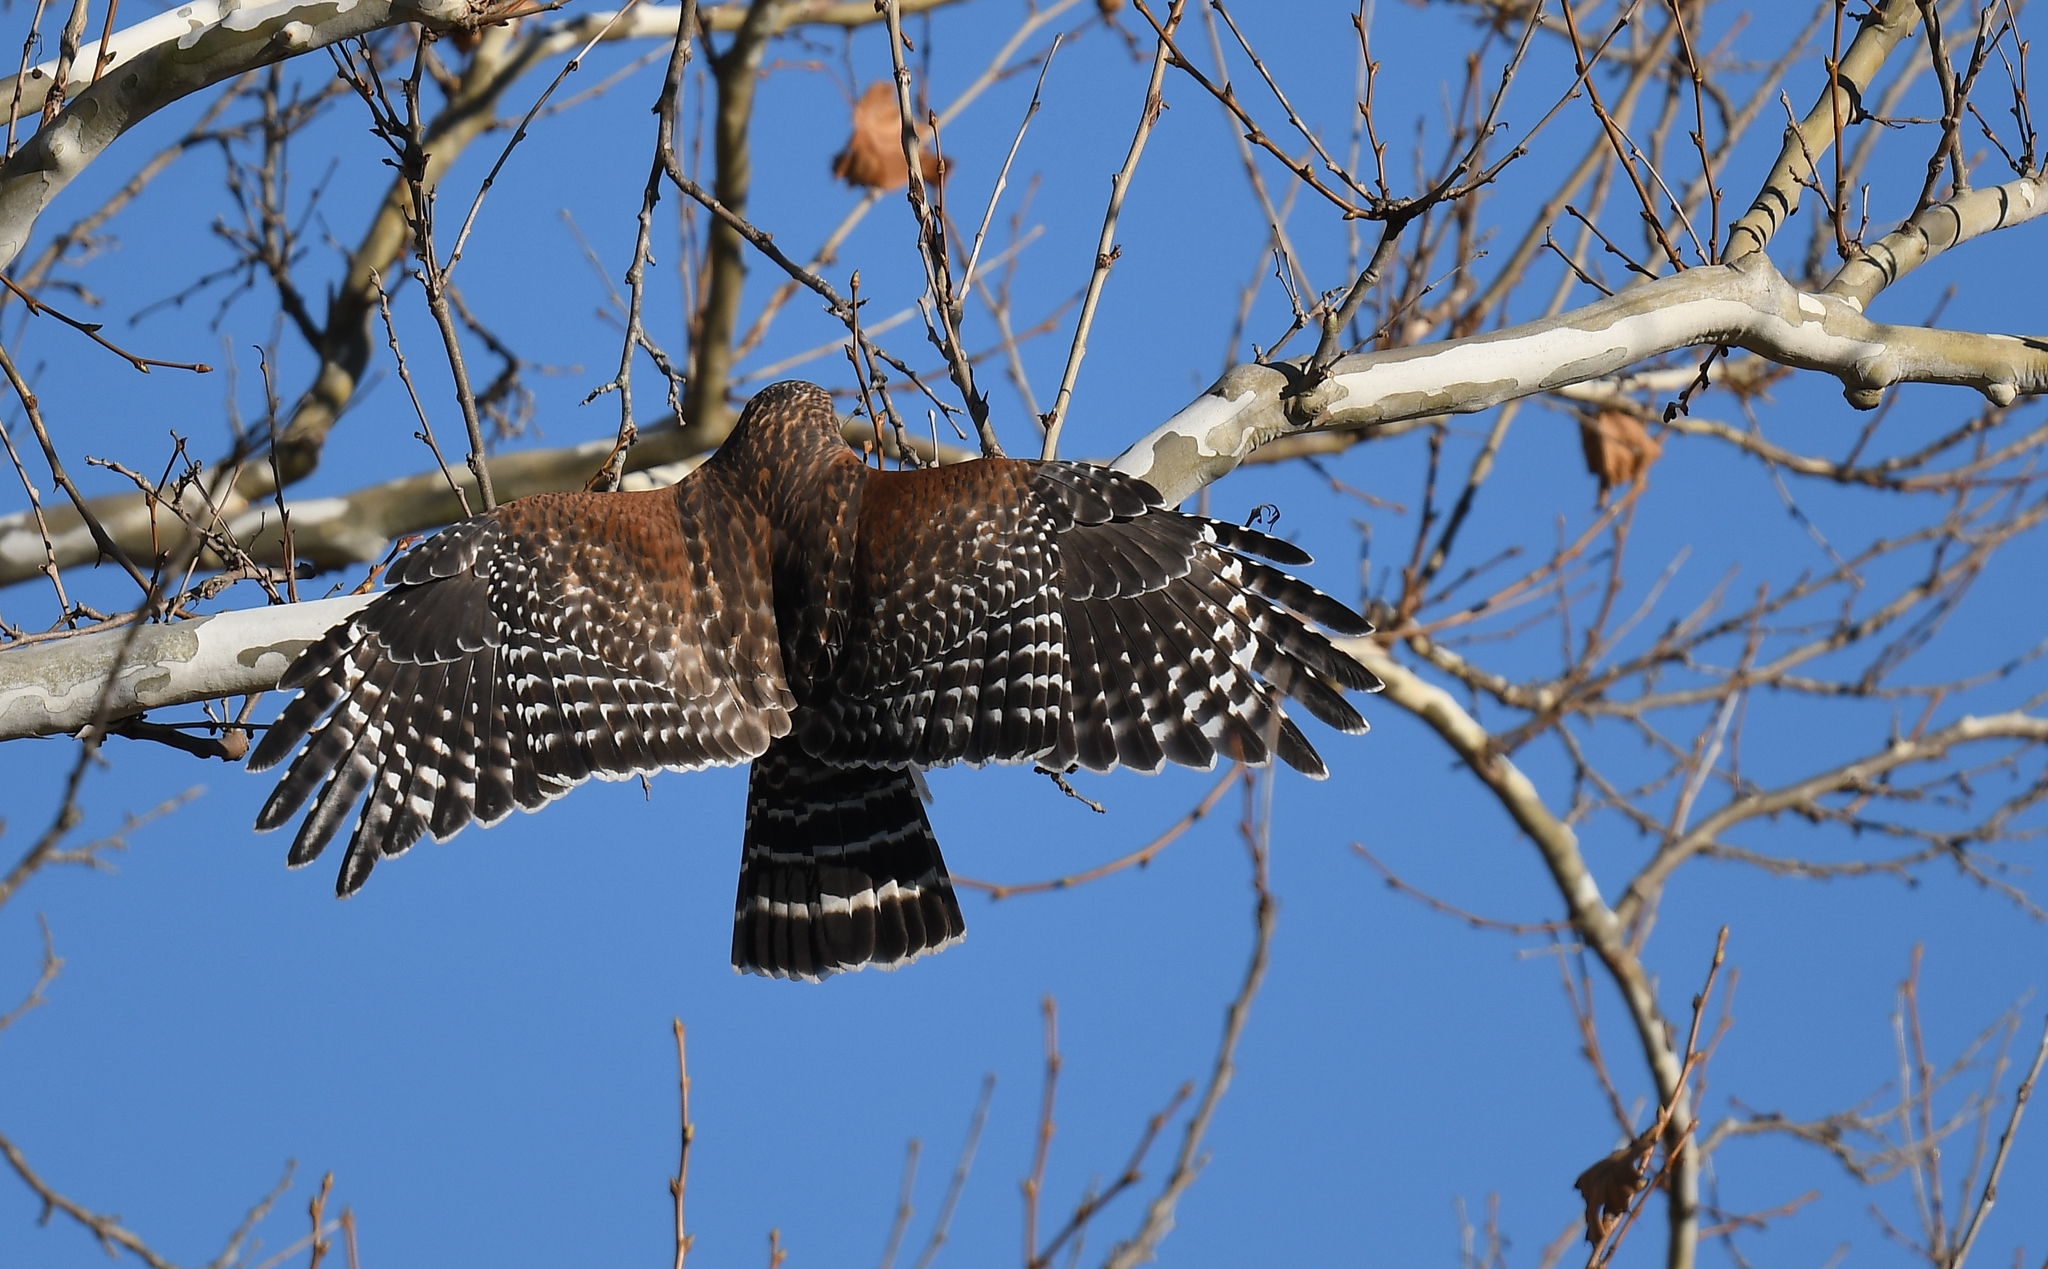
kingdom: Animalia
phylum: Chordata
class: Aves
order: Accipitriformes
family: Accipitridae
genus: Buteo
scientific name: Buteo lineatus
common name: Red-shouldered hawk
